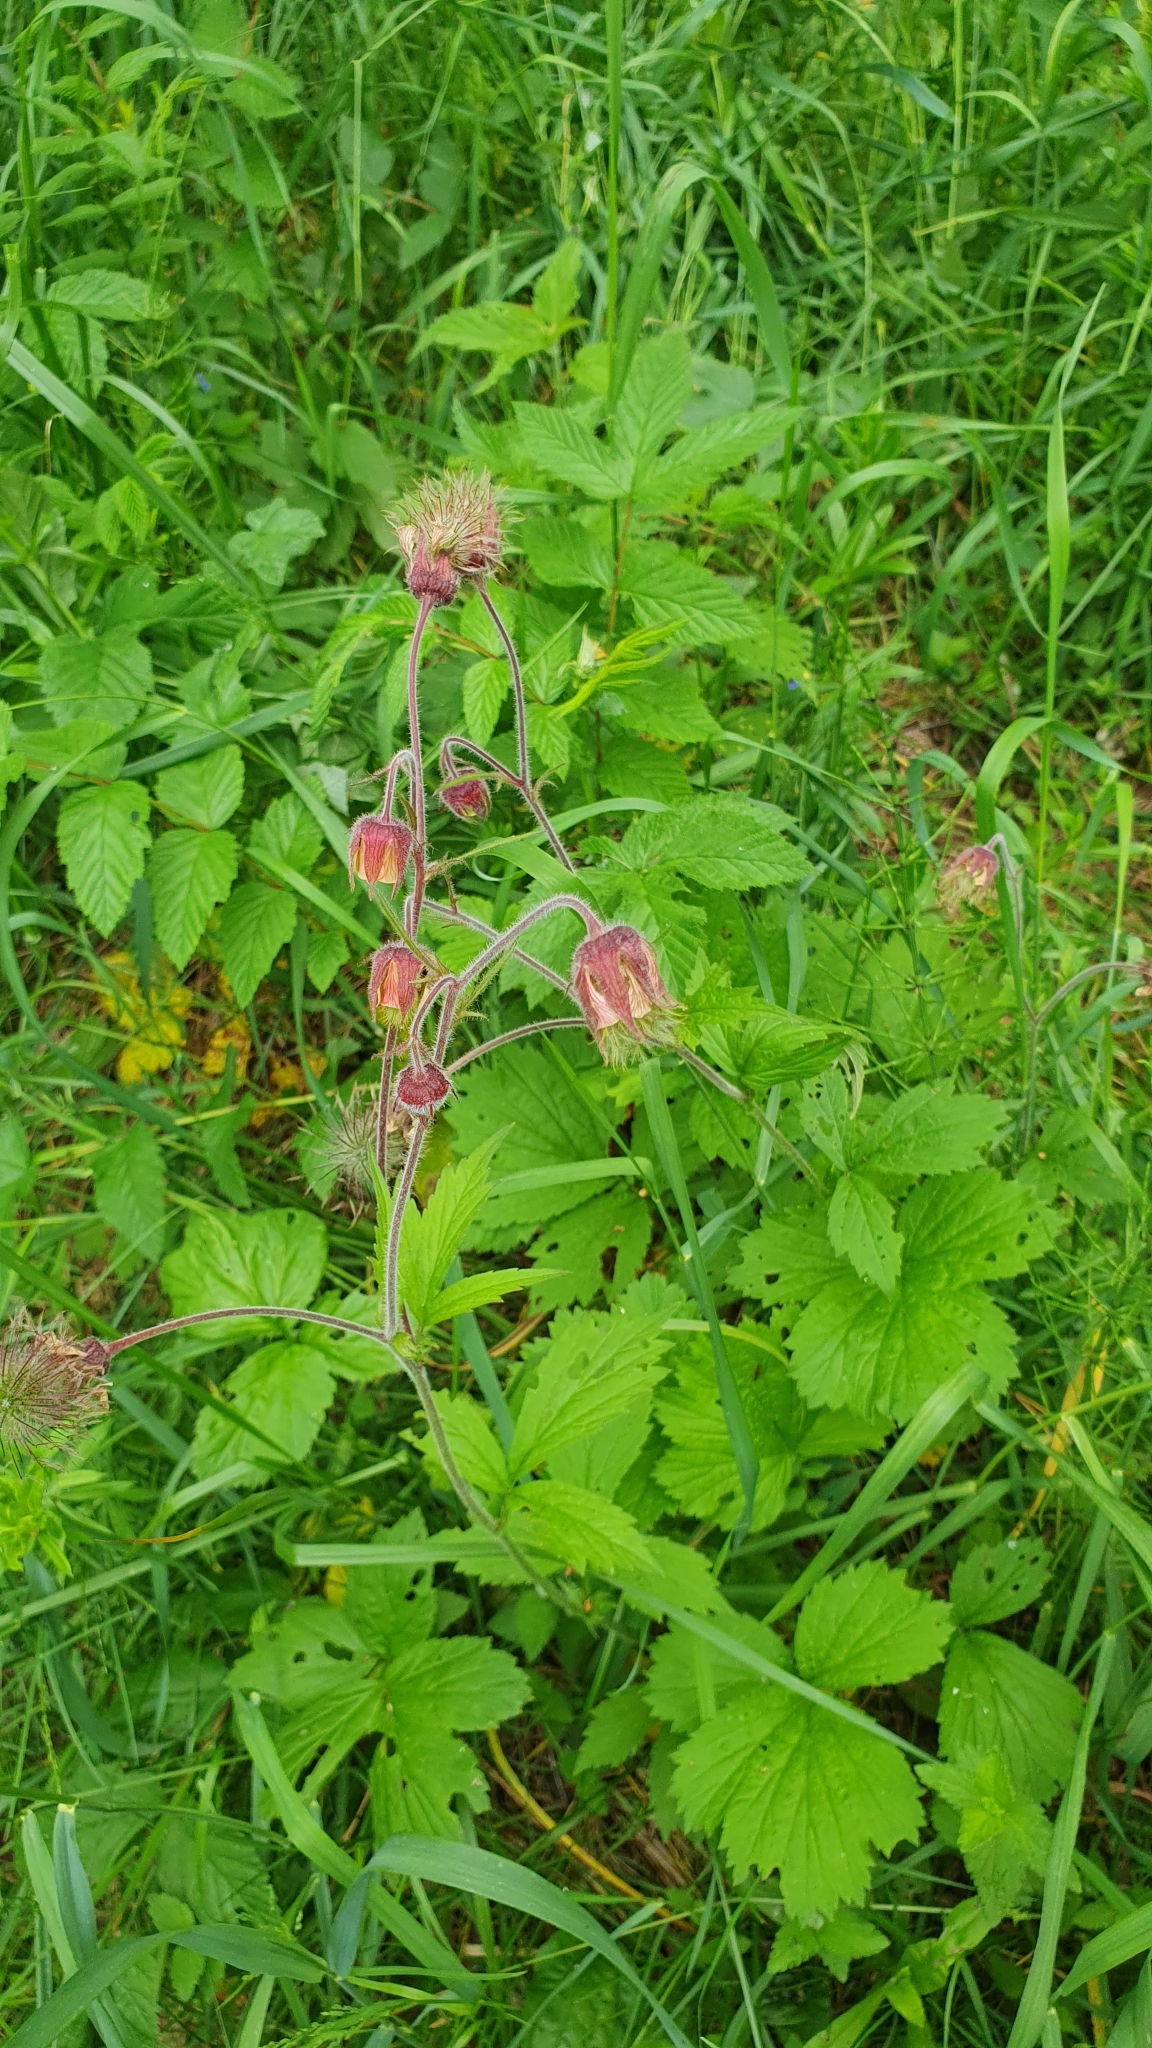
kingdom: Plantae
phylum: Tracheophyta
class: Magnoliopsida
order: Rosales
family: Rosaceae
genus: Geum
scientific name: Geum rivale
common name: Water avens
